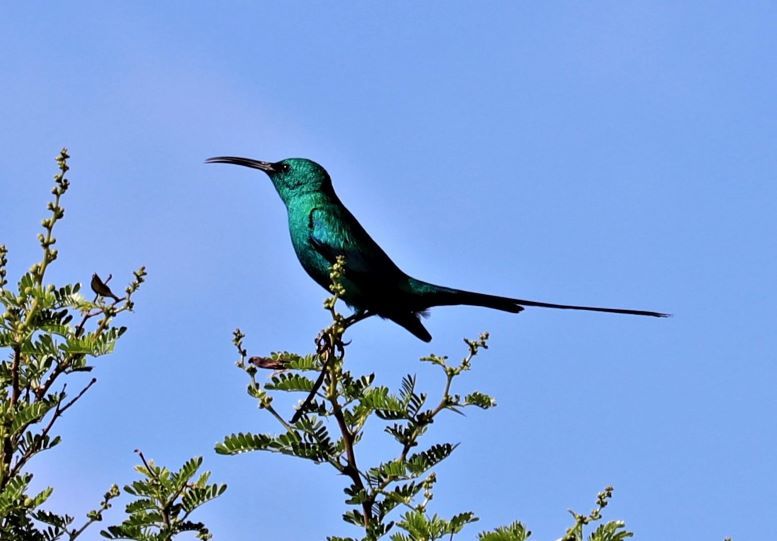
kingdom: Animalia
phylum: Chordata
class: Aves
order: Passeriformes
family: Nectariniidae
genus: Nectarinia
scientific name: Nectarinia famosa
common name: Malachite sunbird
